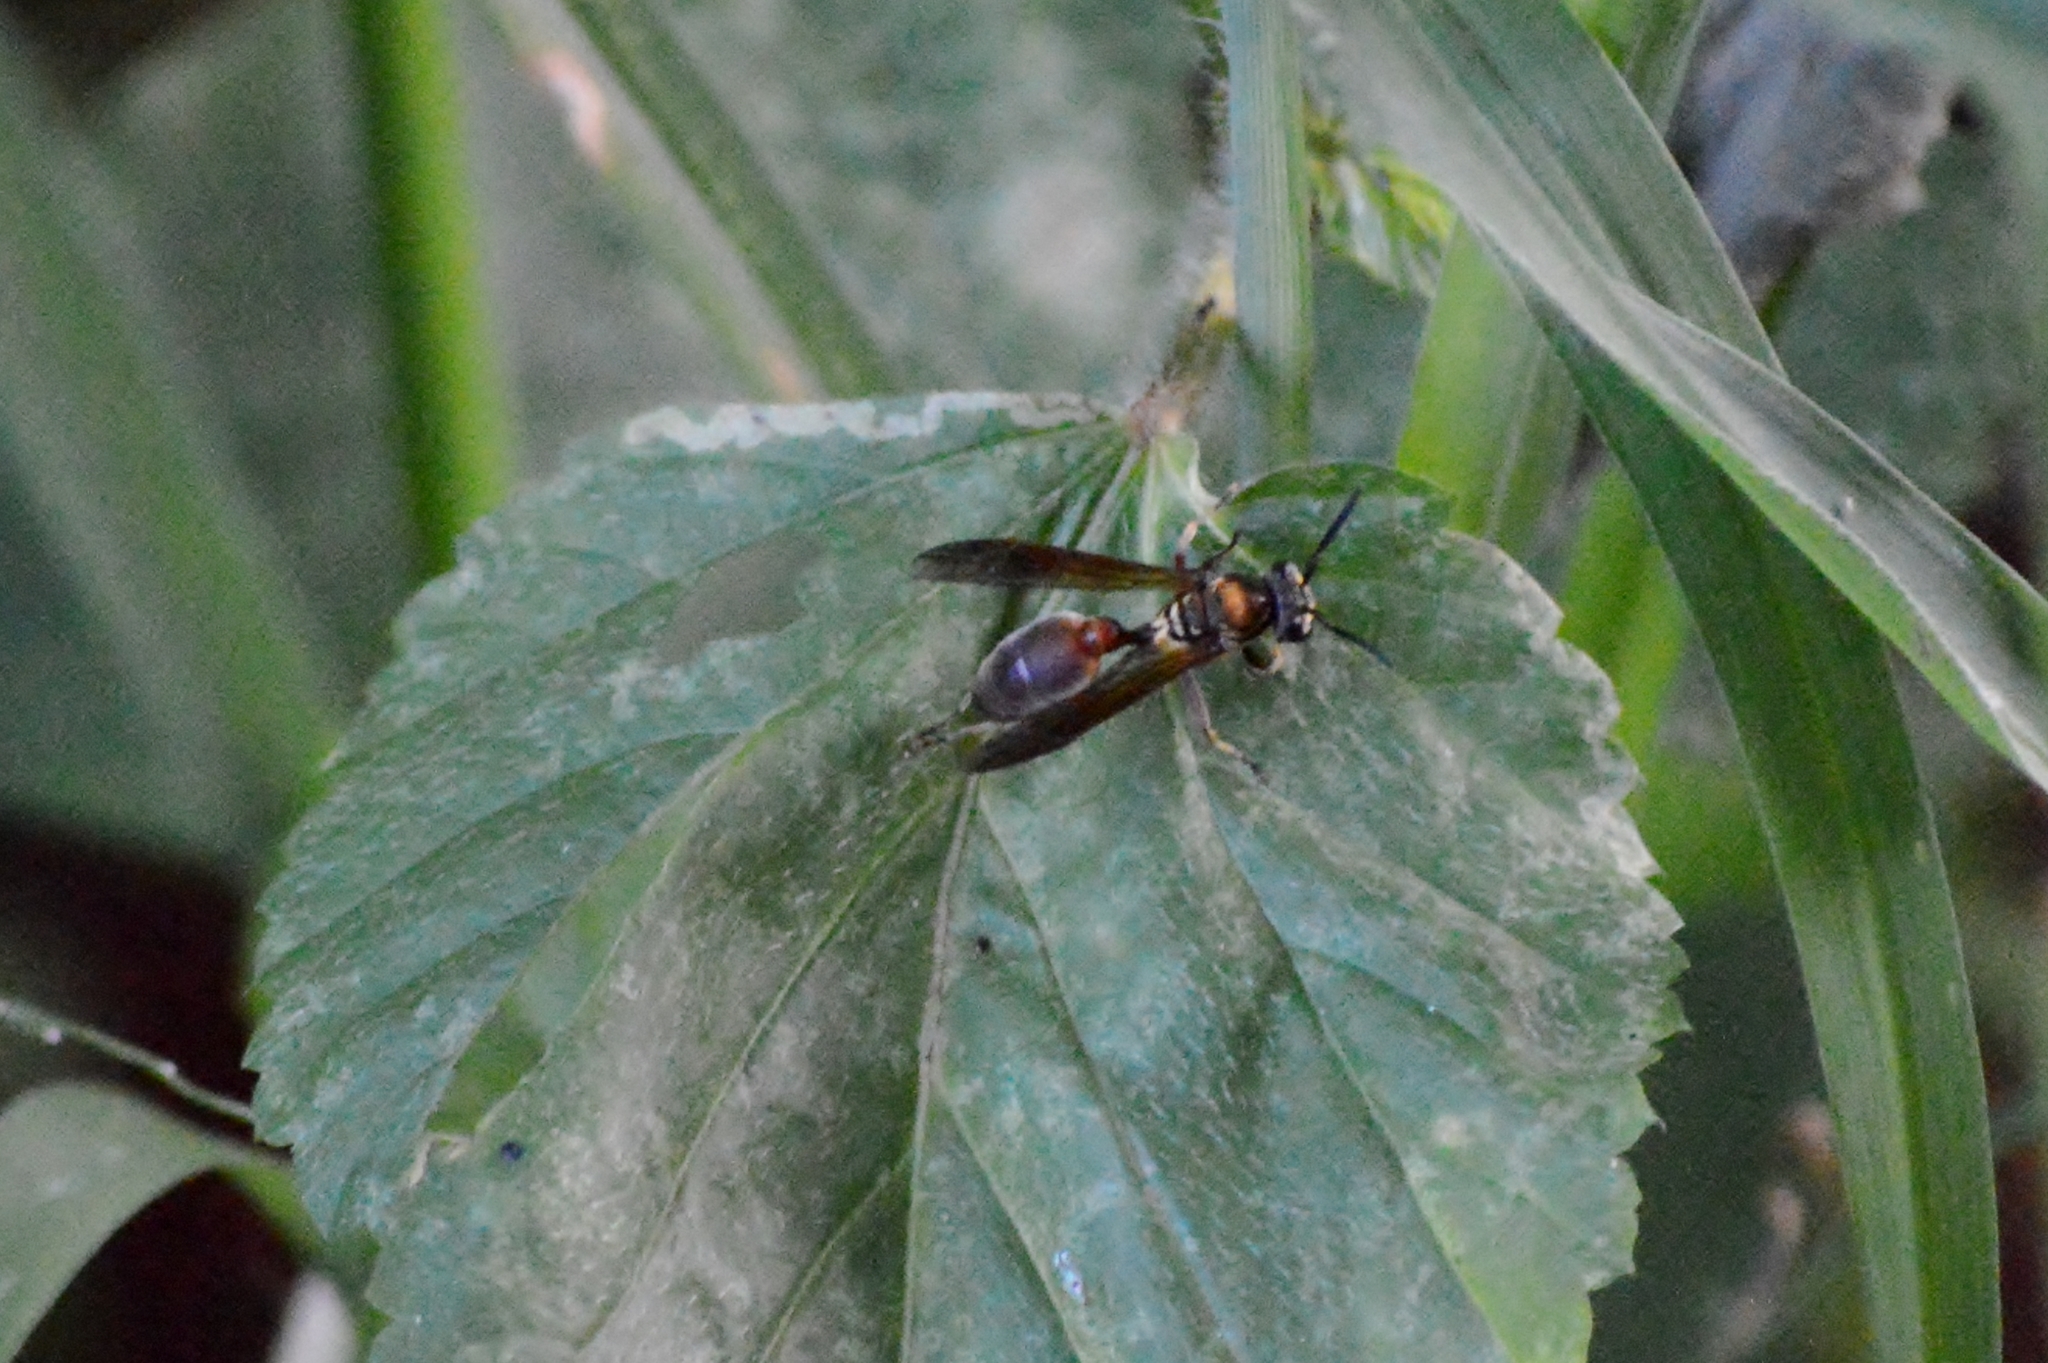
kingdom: Animalia
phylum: Arthropoda
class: Insecta
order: Hymenoptera
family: Eumenidae
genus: Polybia
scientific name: Polybia chrysothorax
